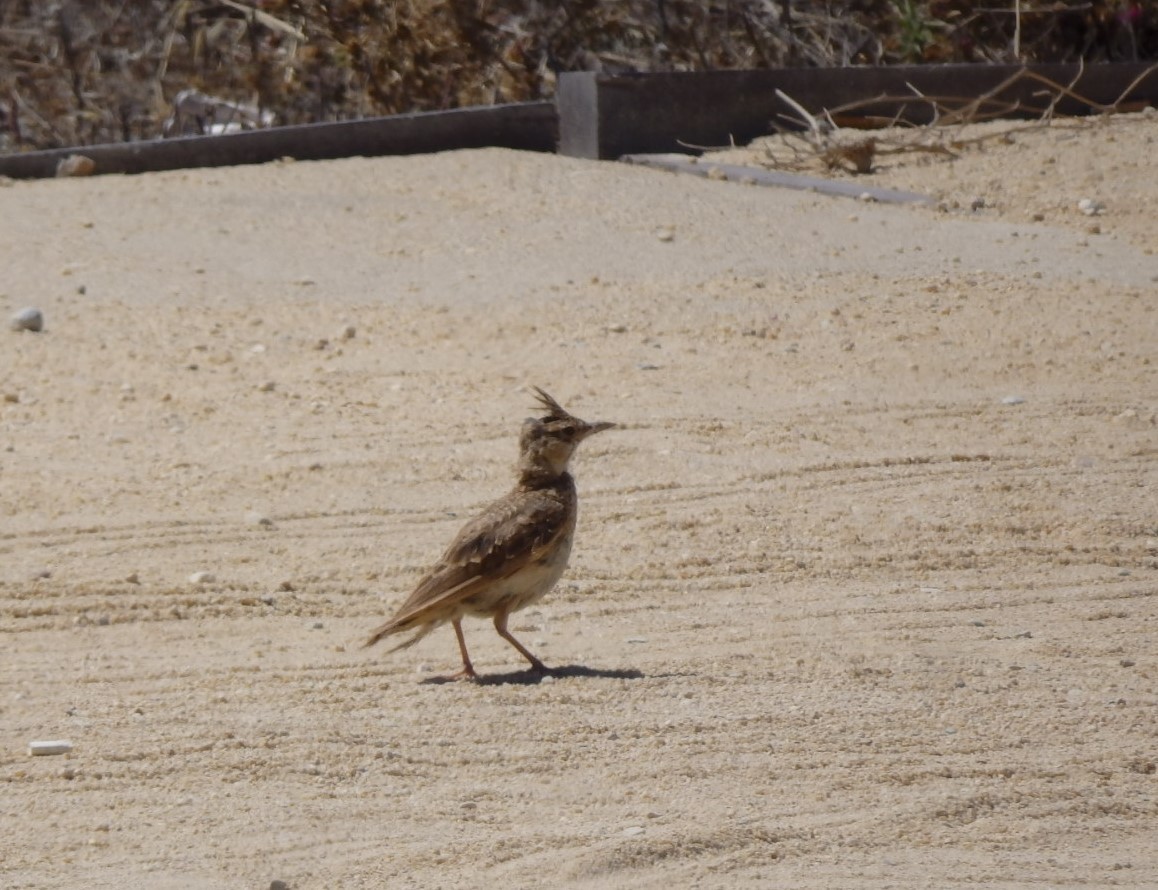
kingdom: Animalia
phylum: Chordata
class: Aves
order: Passeriformes
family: Alaudidae
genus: Galerida
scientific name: Galerida cristata
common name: Crested lark
